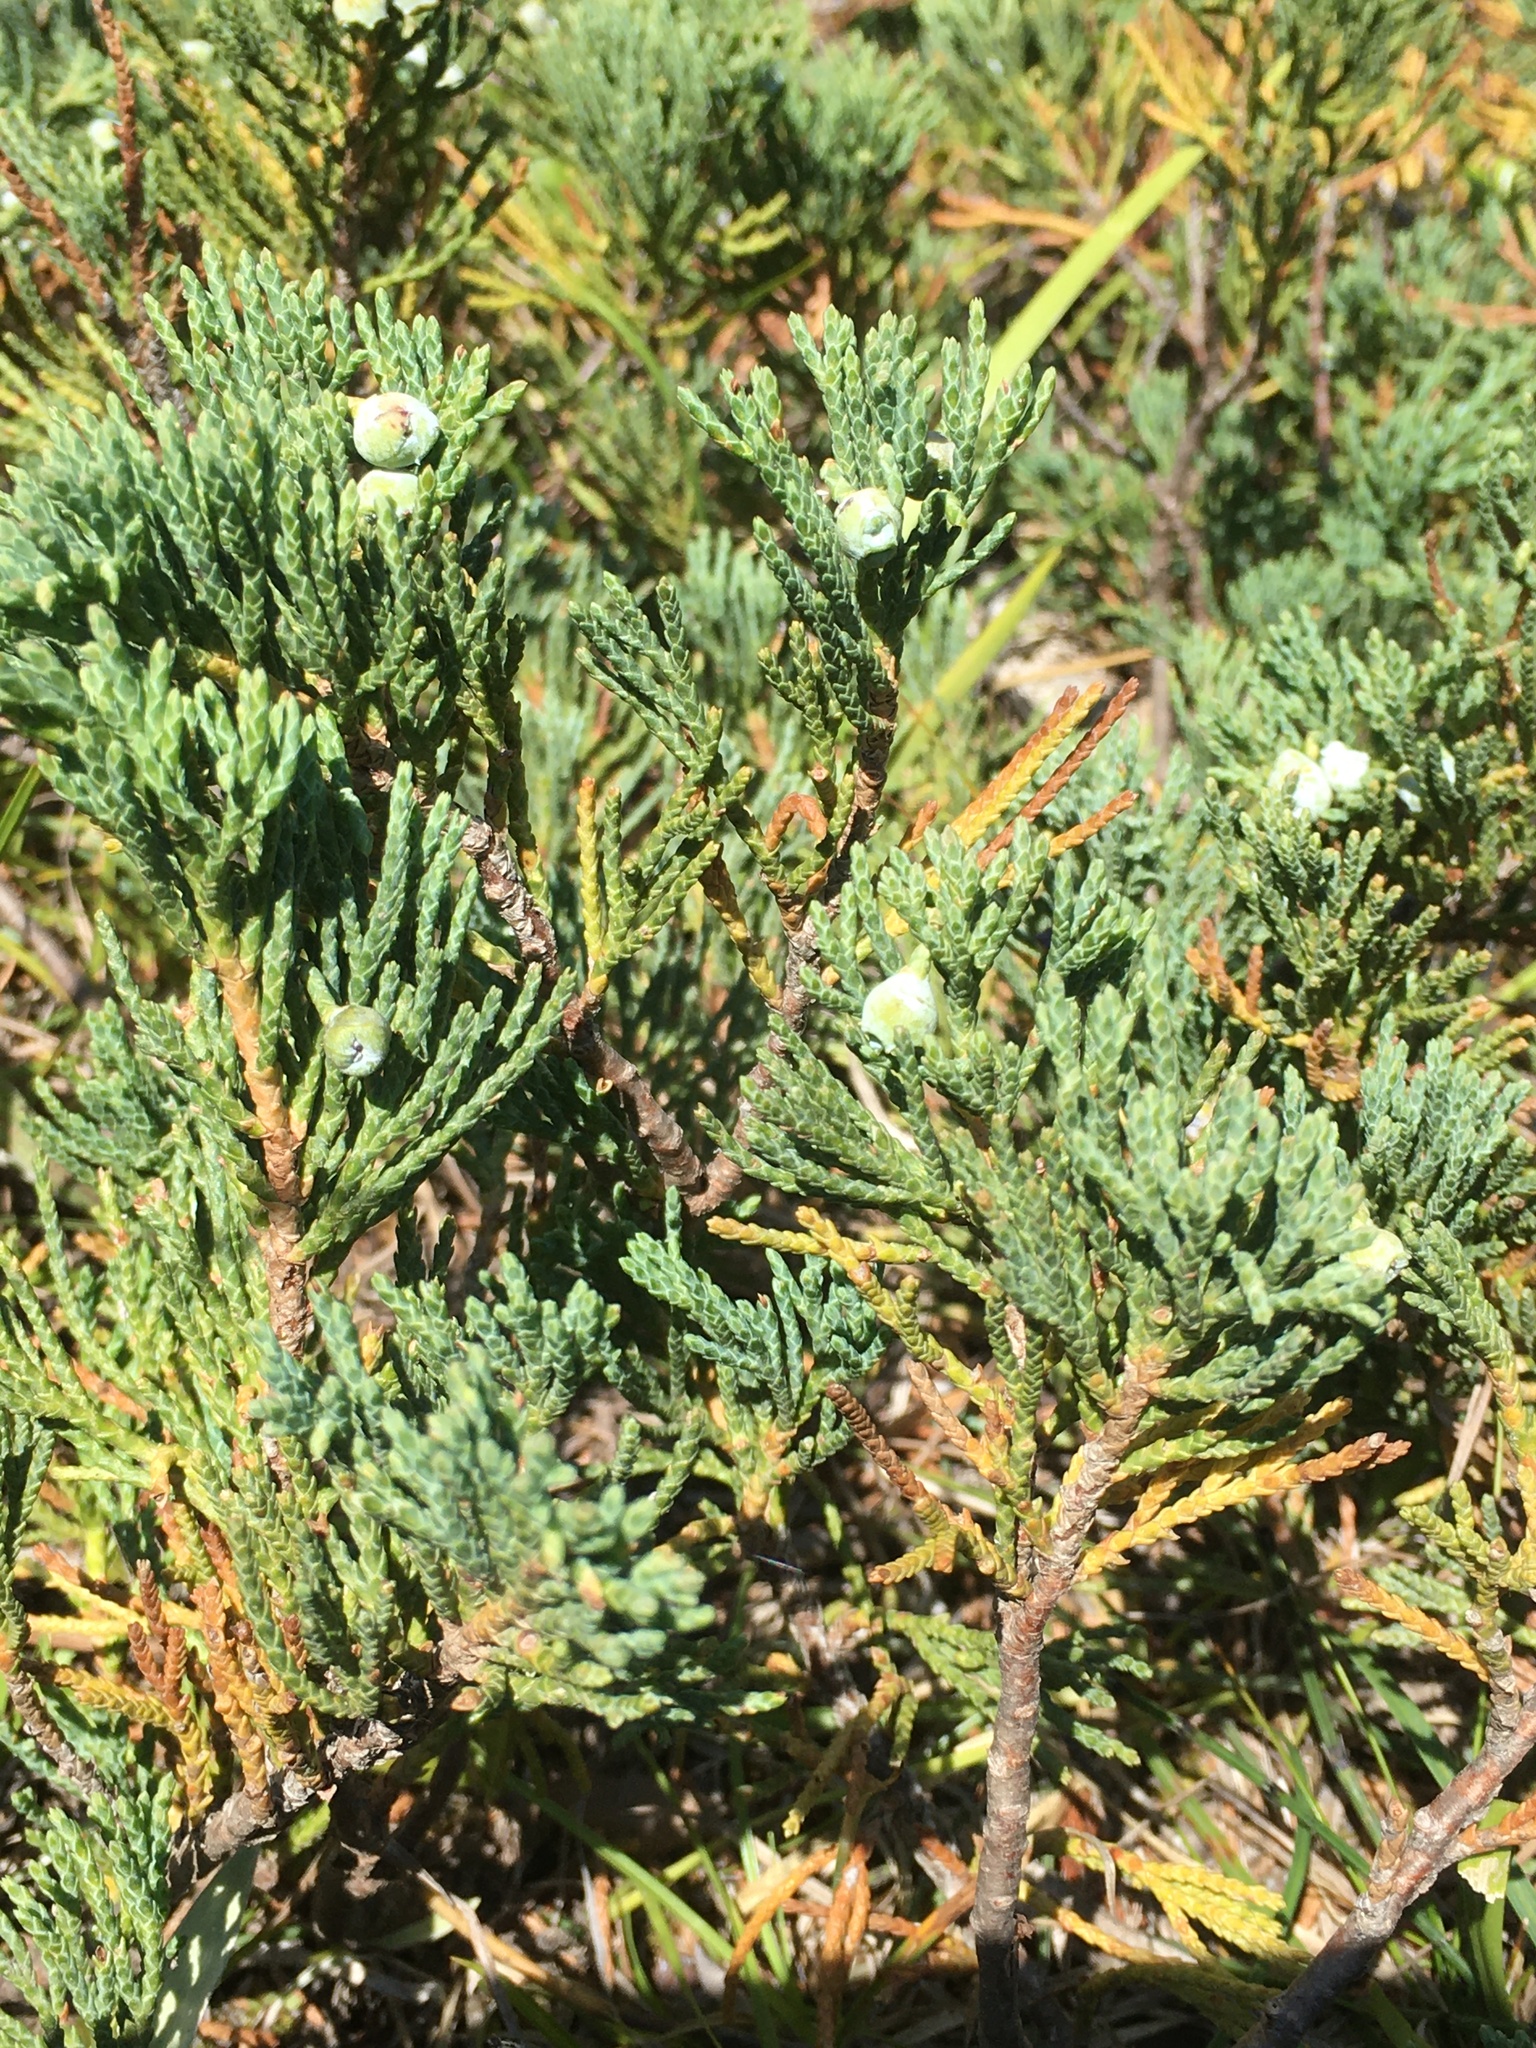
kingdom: Plantae
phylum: Tracheophyta
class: Pinopsida
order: Pinales
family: Cupressaceae
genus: Juniperus
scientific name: Juniperus horizontalis
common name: Creeping juniper
